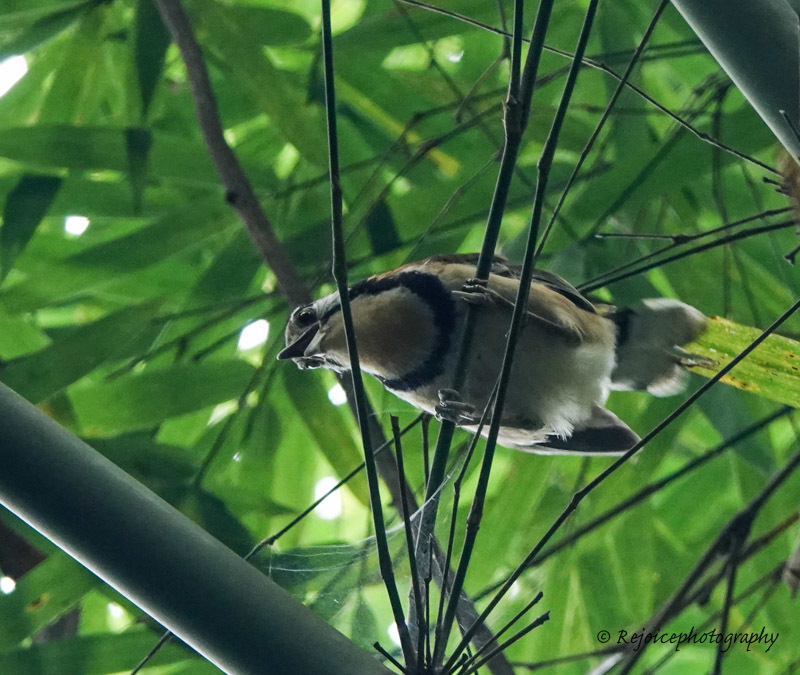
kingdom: Animalia
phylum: Chordata
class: Aves
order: Passeriformes
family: Leiothrichidae
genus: Garrulax
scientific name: Garrulax pectoralis
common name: Greater necklaced laughingthrush
